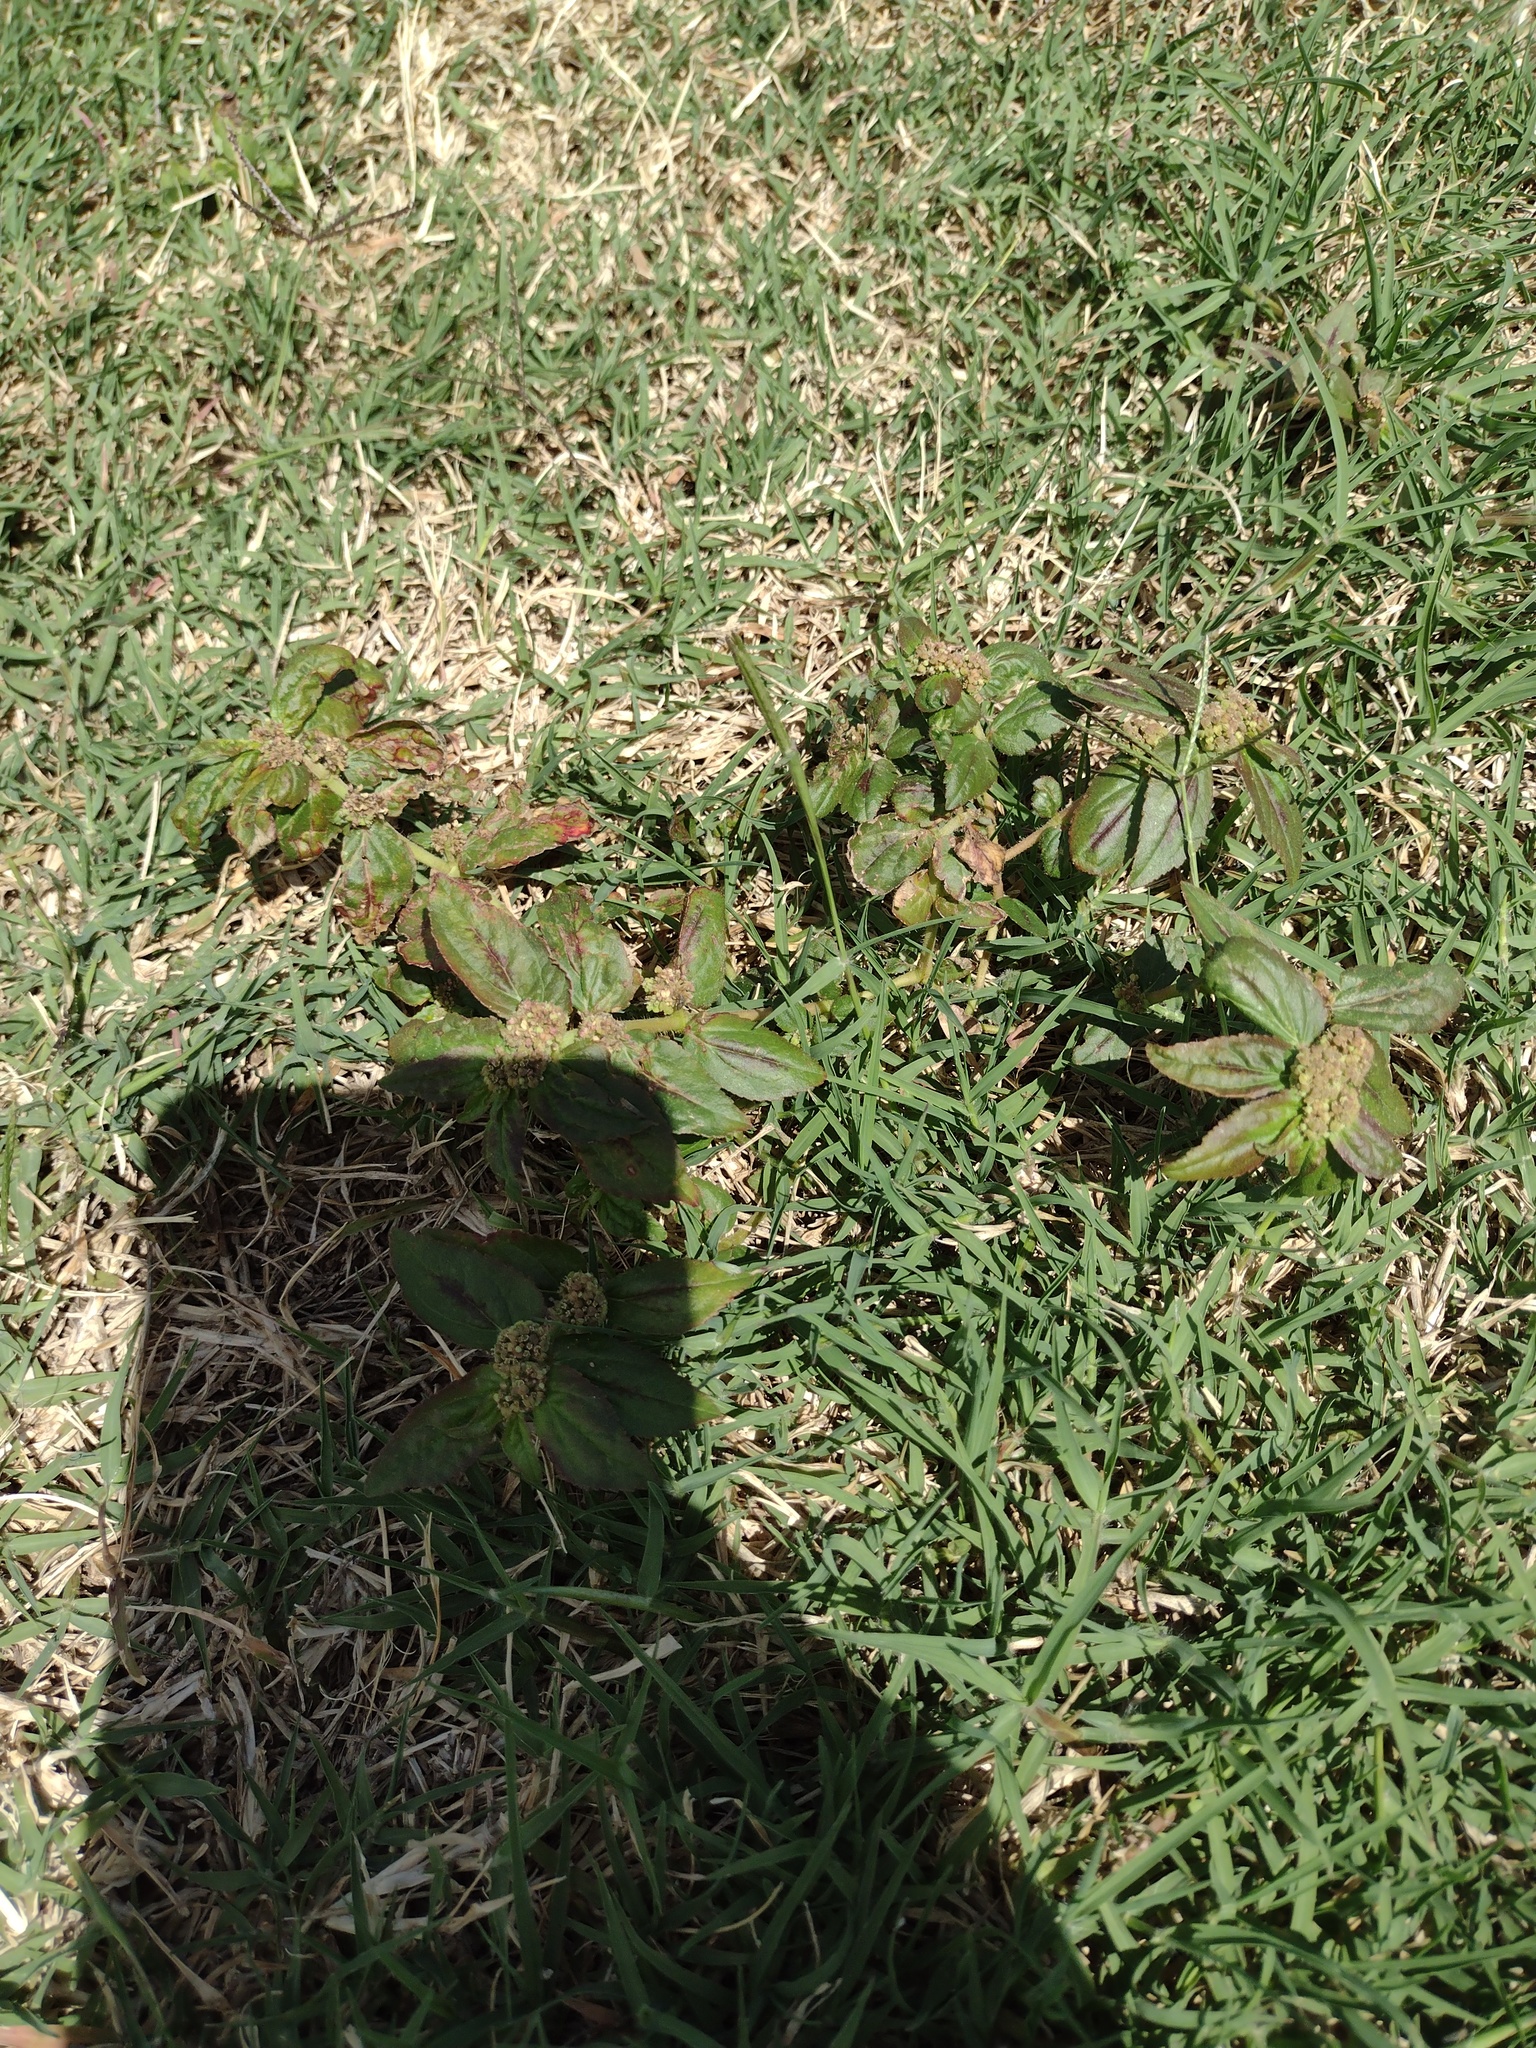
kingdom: Plantae
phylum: Tracheophyta
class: Magnoliopsida
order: Malpighiales
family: Euphorbiaceae
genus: Euphorbia
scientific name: Euphorbia hirta
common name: Pillpod sandmat
